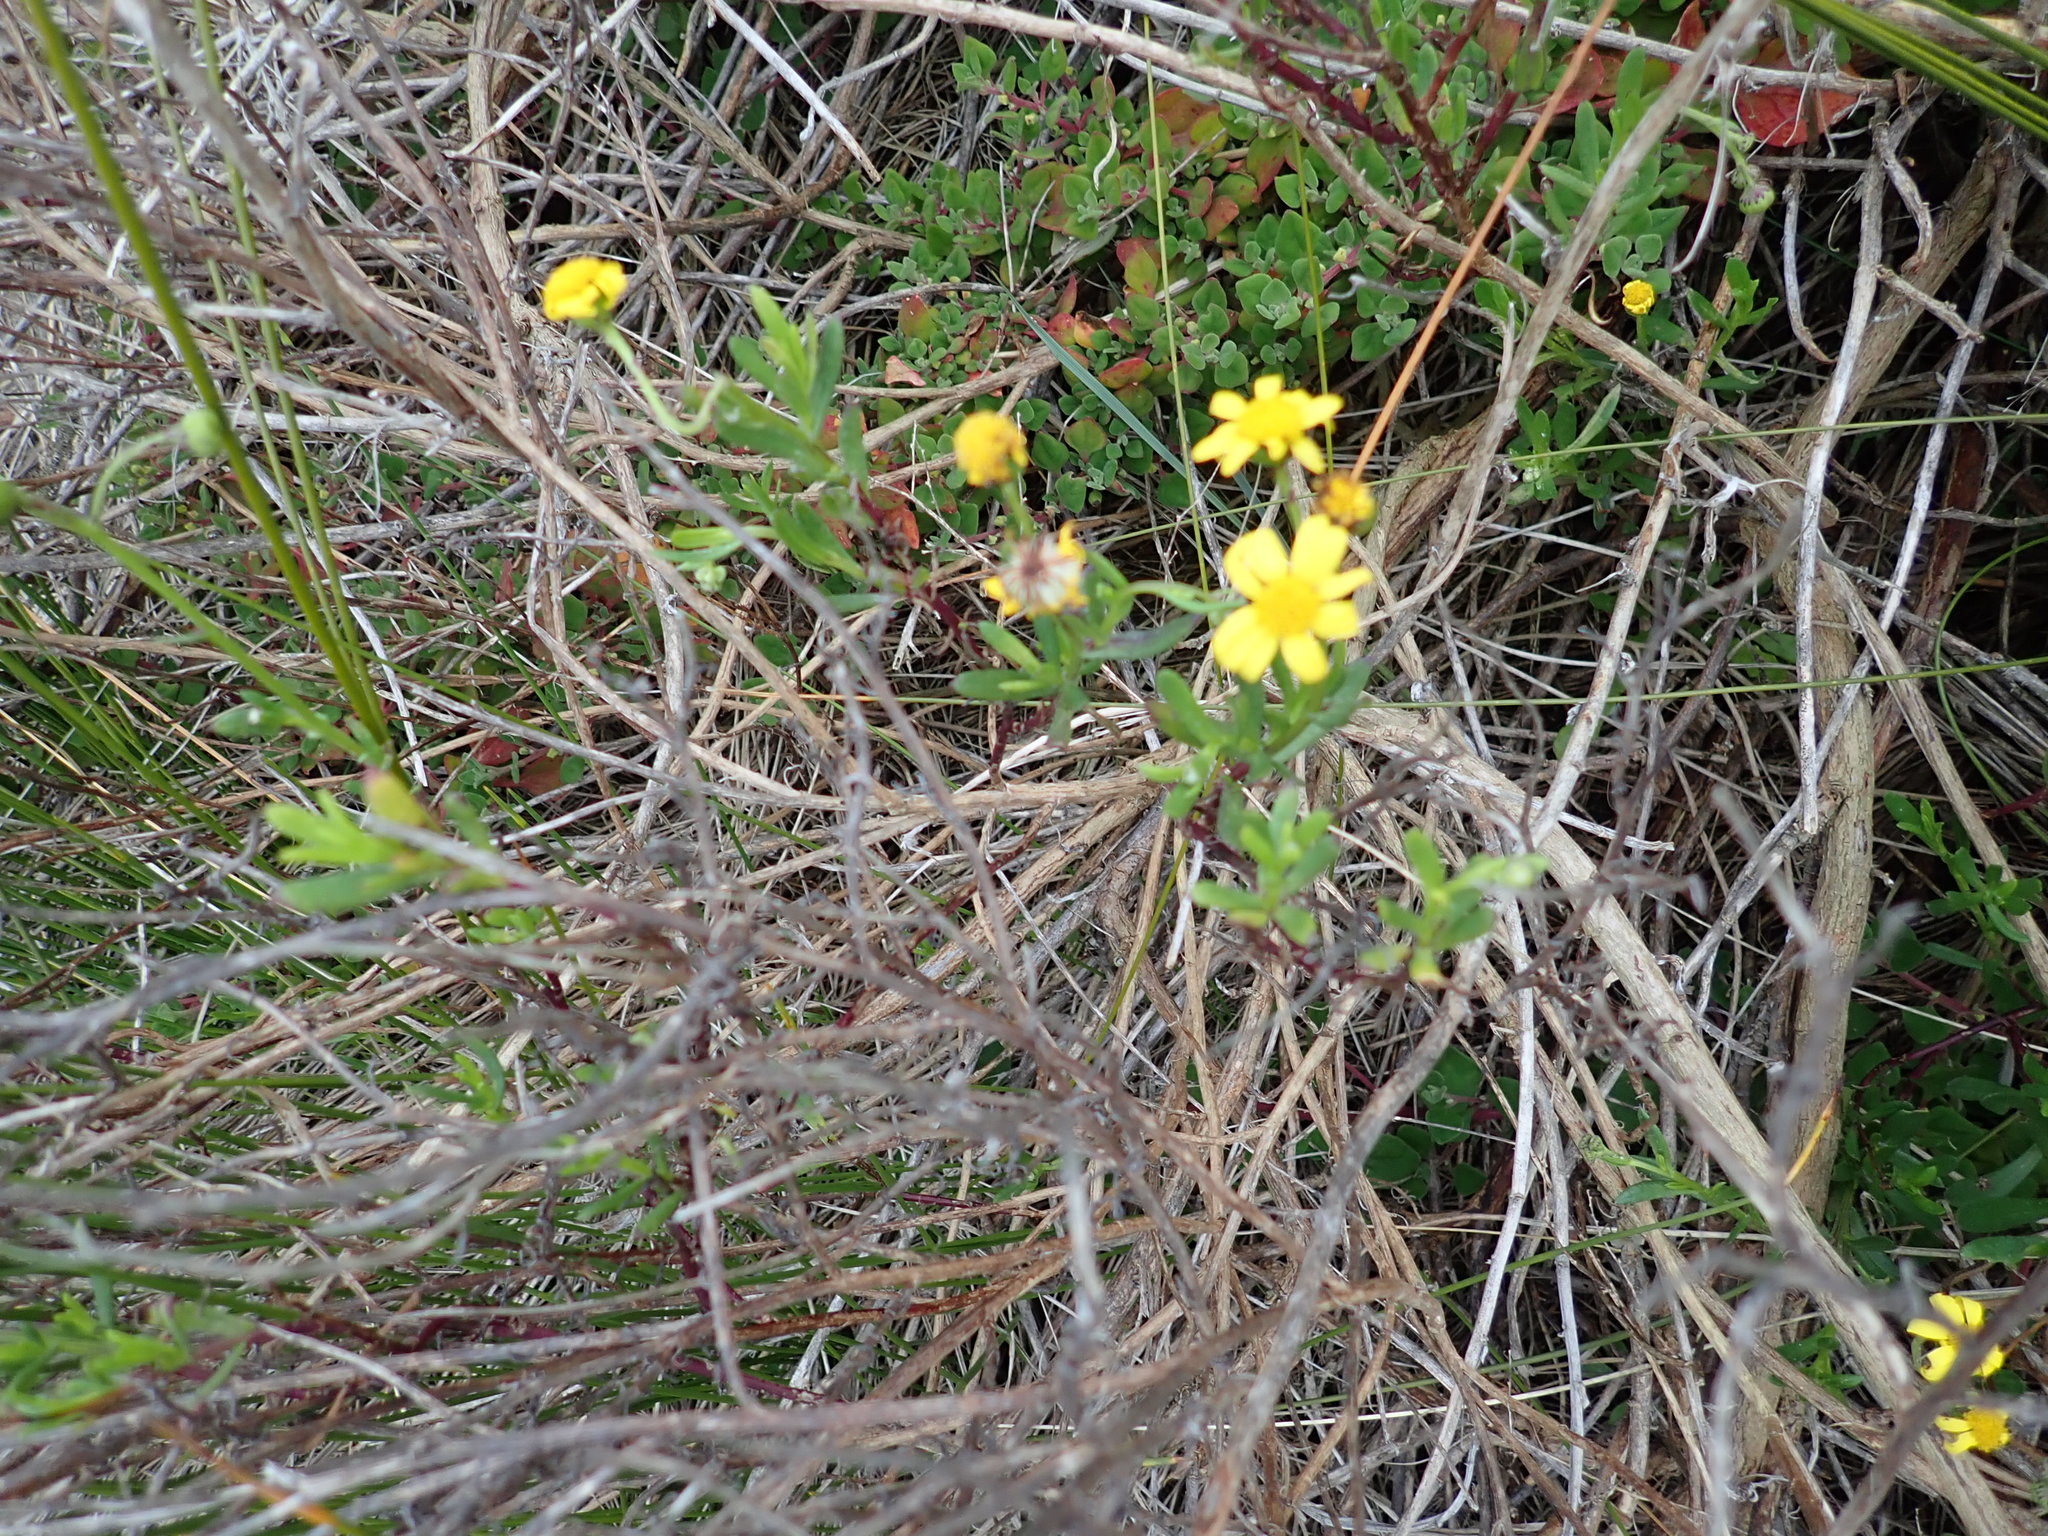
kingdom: Plantae
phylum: Tracheophyta
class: Magnoliopsida
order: Asterales
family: Asteraceae
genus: Senecio
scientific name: Senecio skirrhodon
